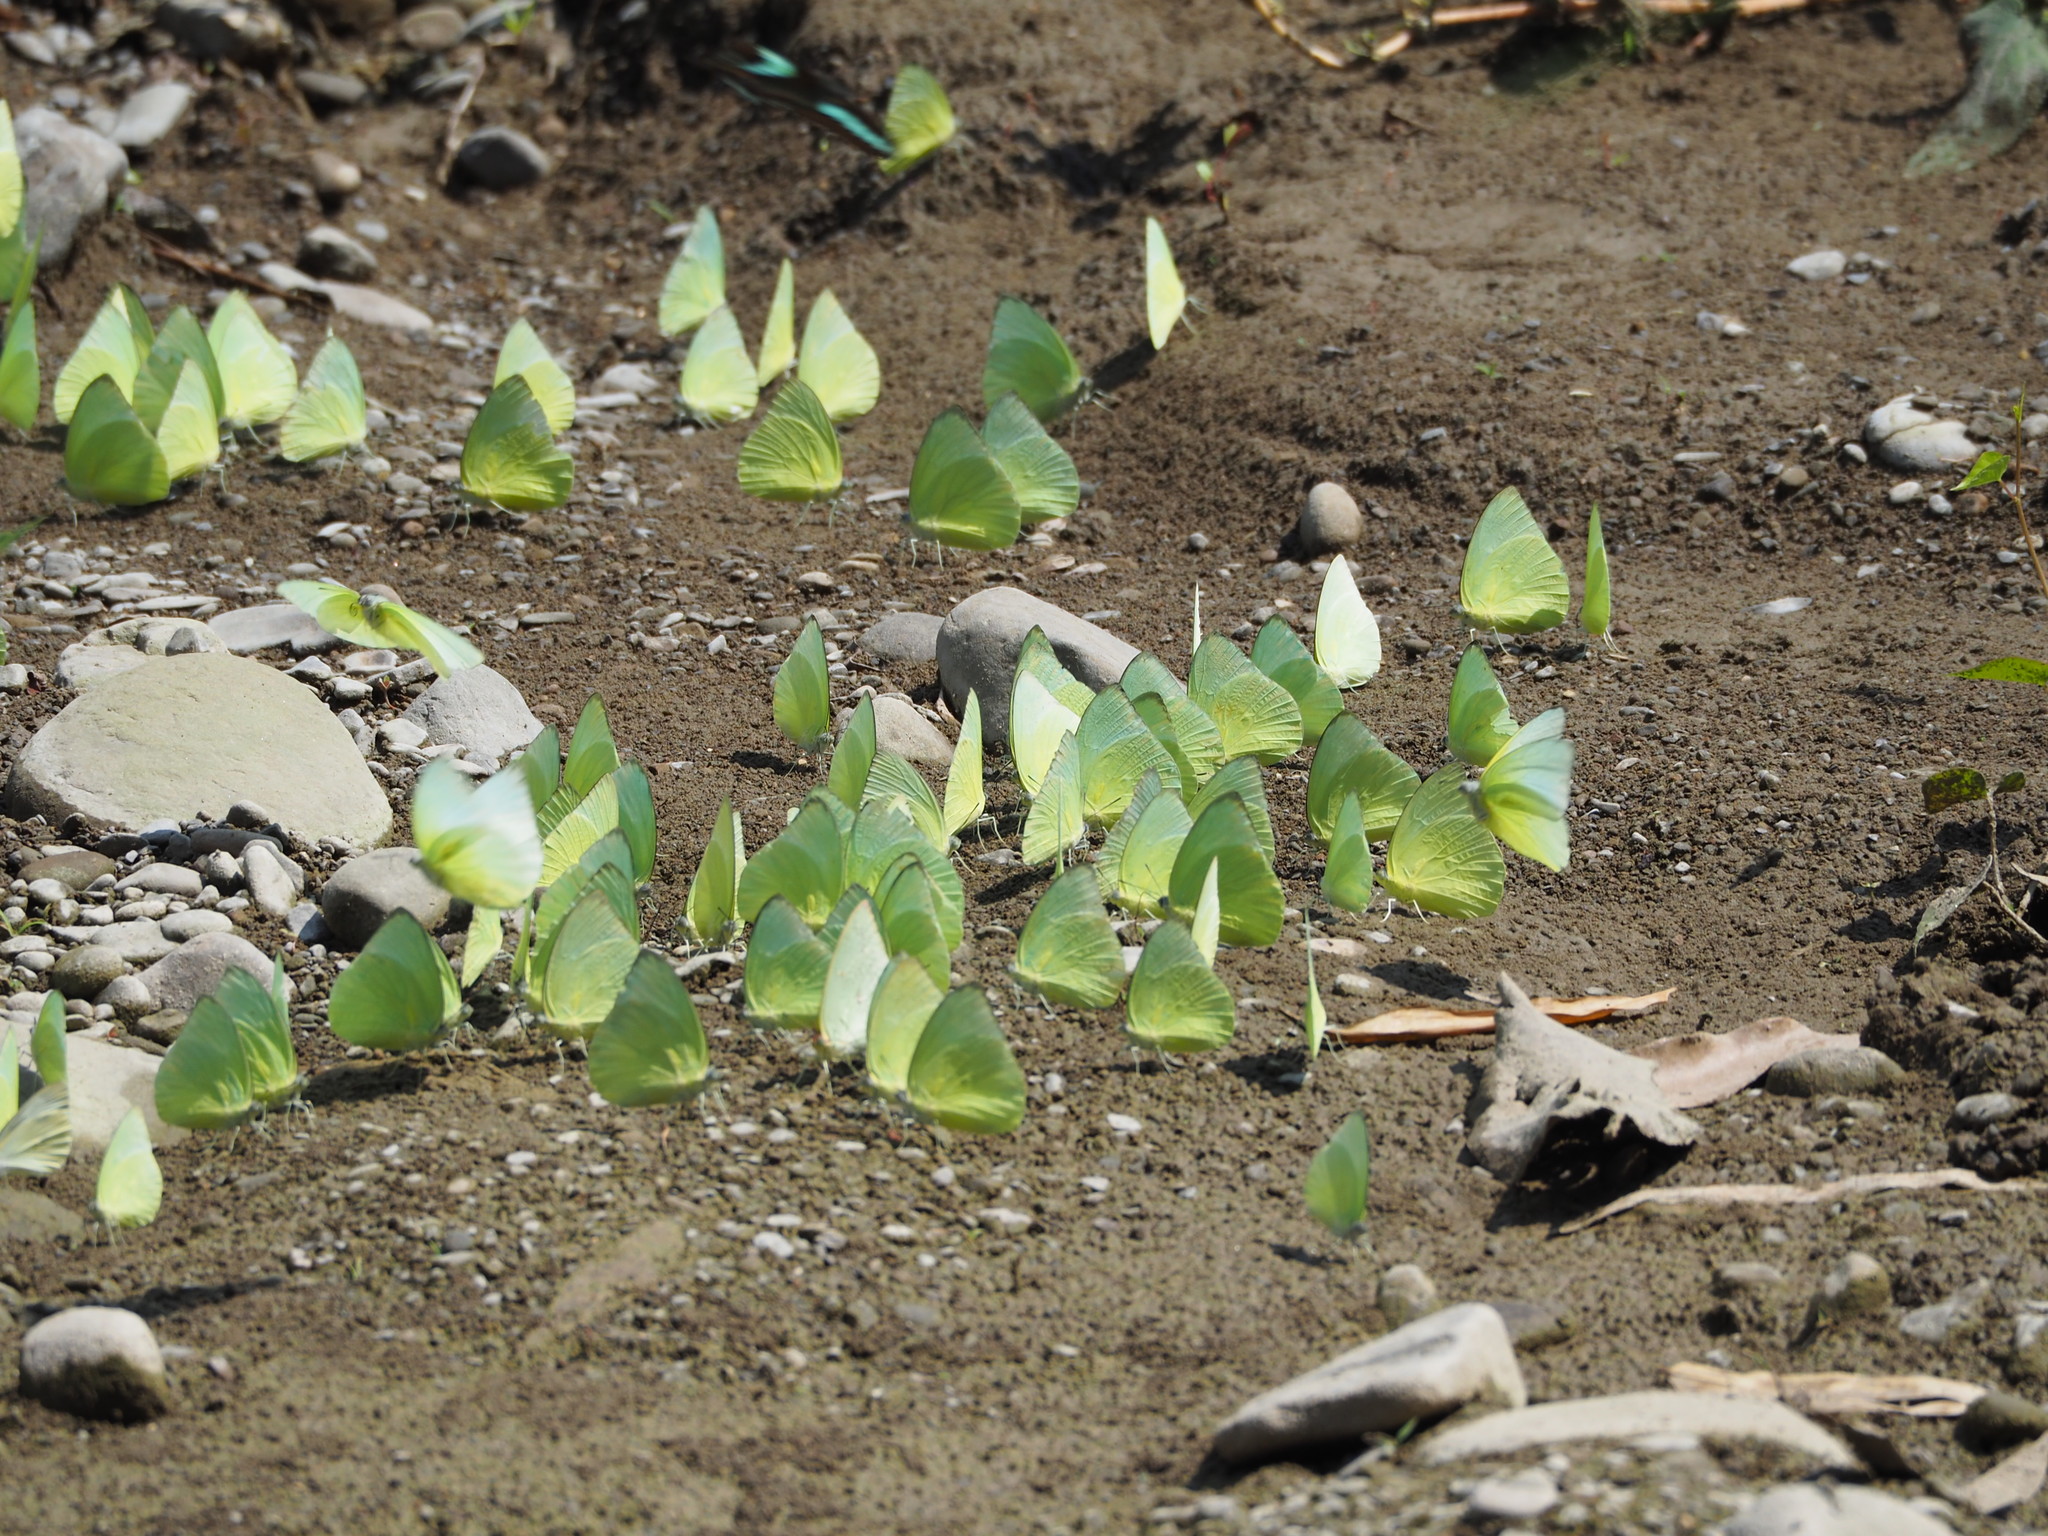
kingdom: Animalia
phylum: Arthropoda
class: Insecta
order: Lepidoptera
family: Pieridae
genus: Catopsilia
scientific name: Catopsilia pomona
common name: Common emigrant
